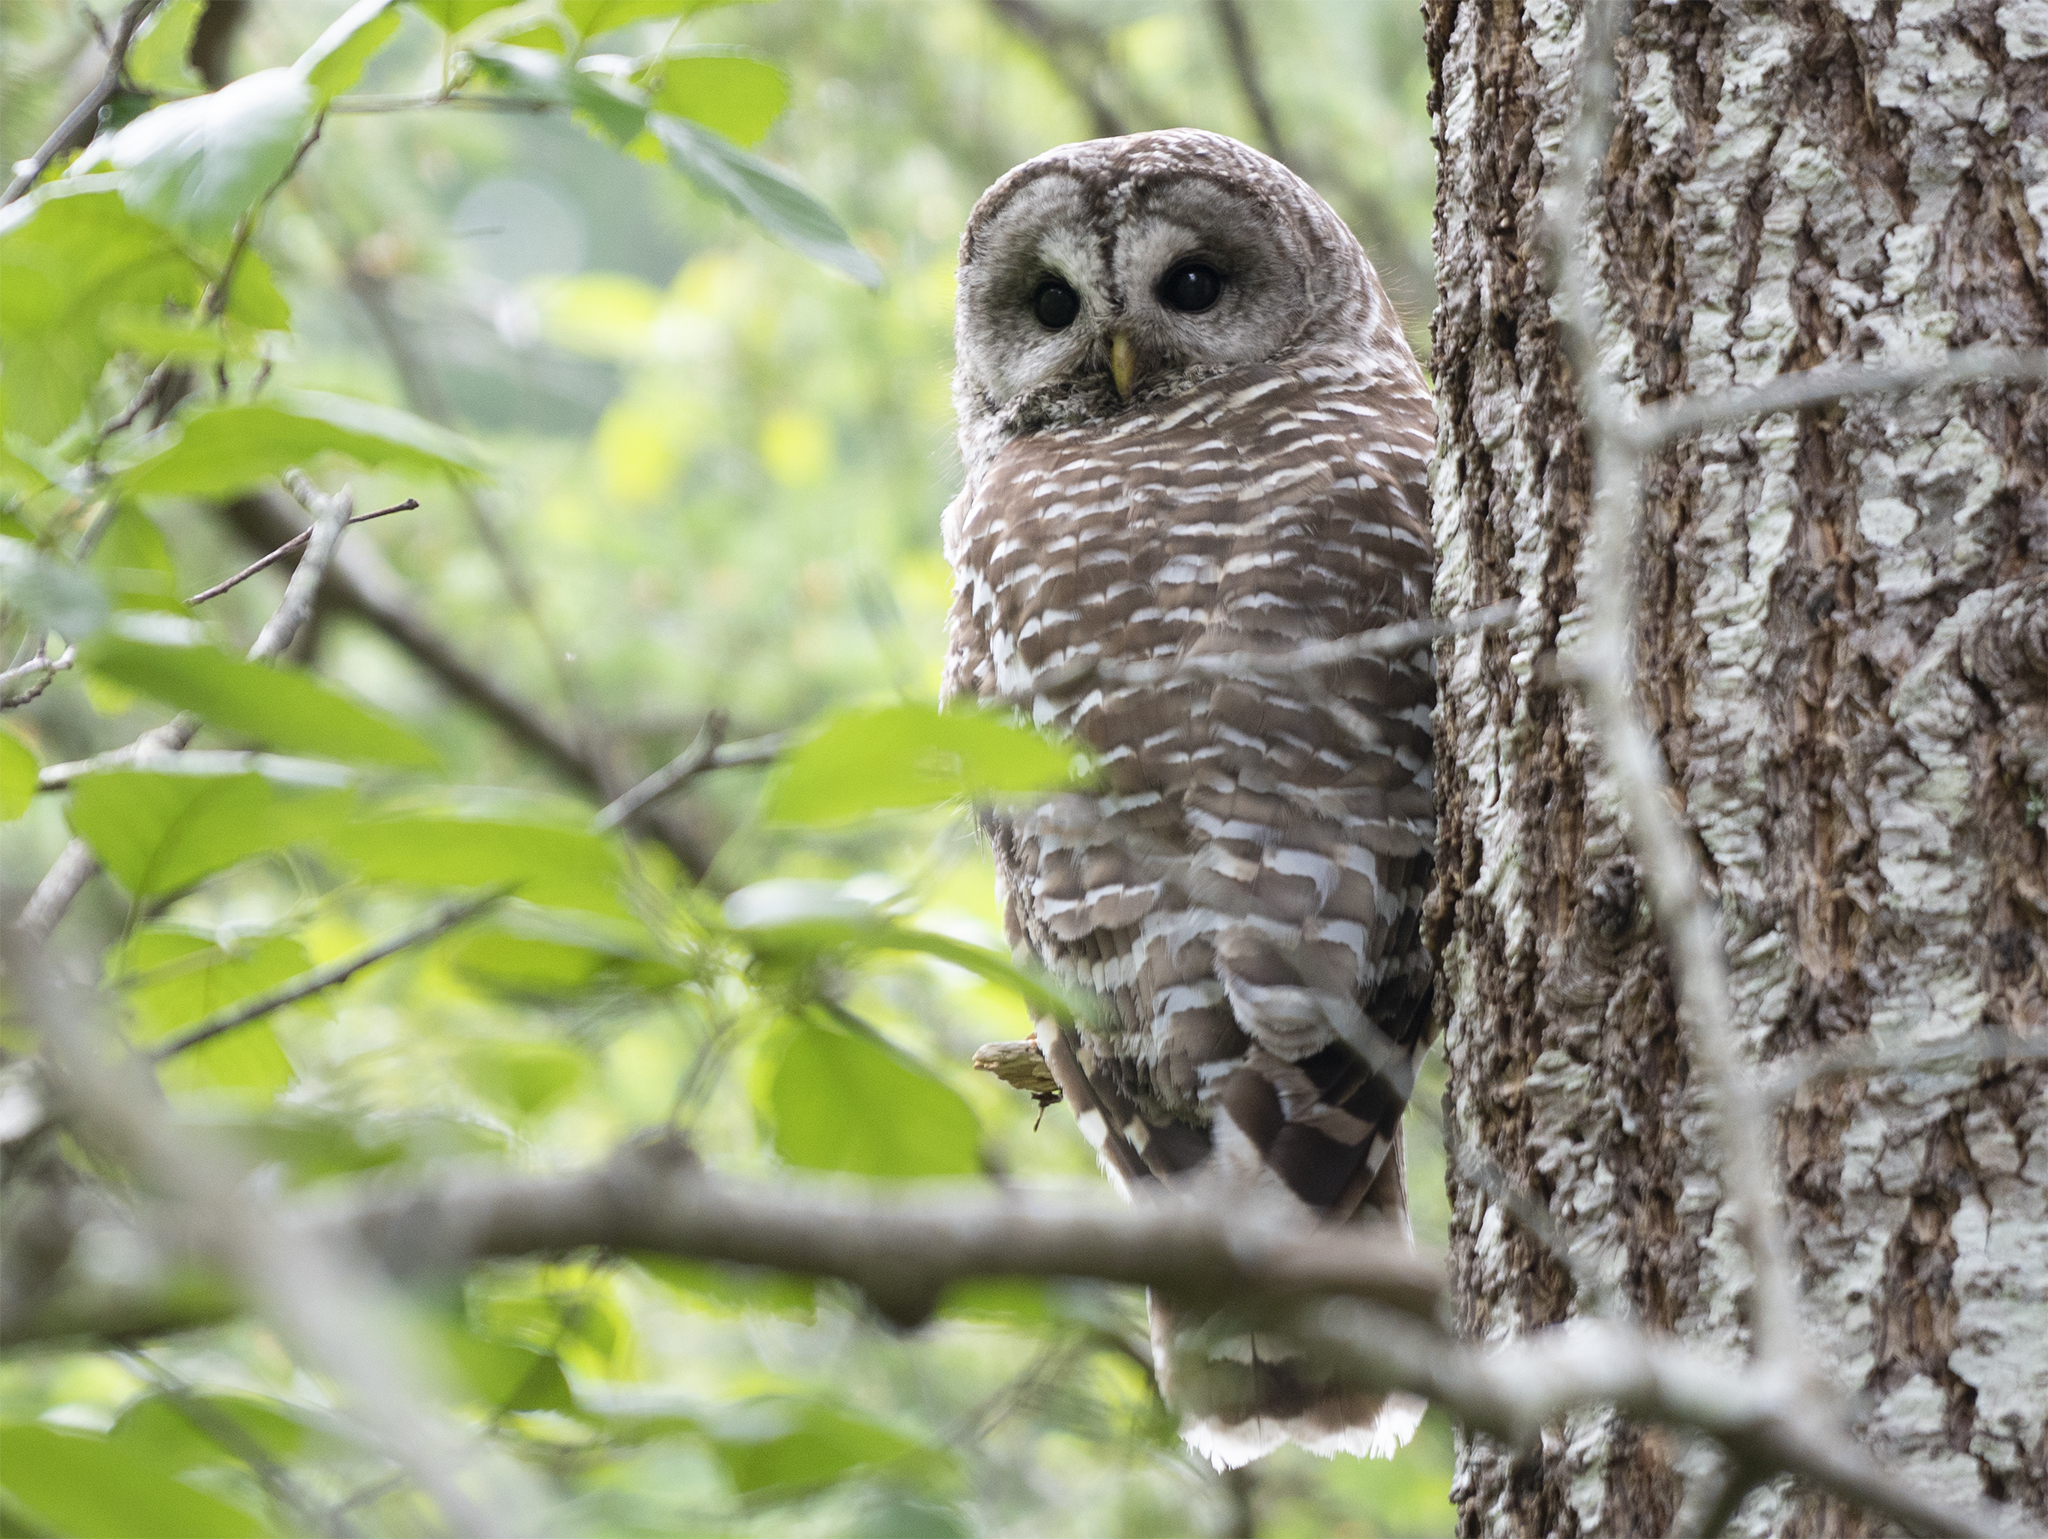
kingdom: Animalia
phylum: Chordata
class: Aves
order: Strigiformes
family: Strigidae
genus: Strix
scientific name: Strix varia
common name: Barred owl
